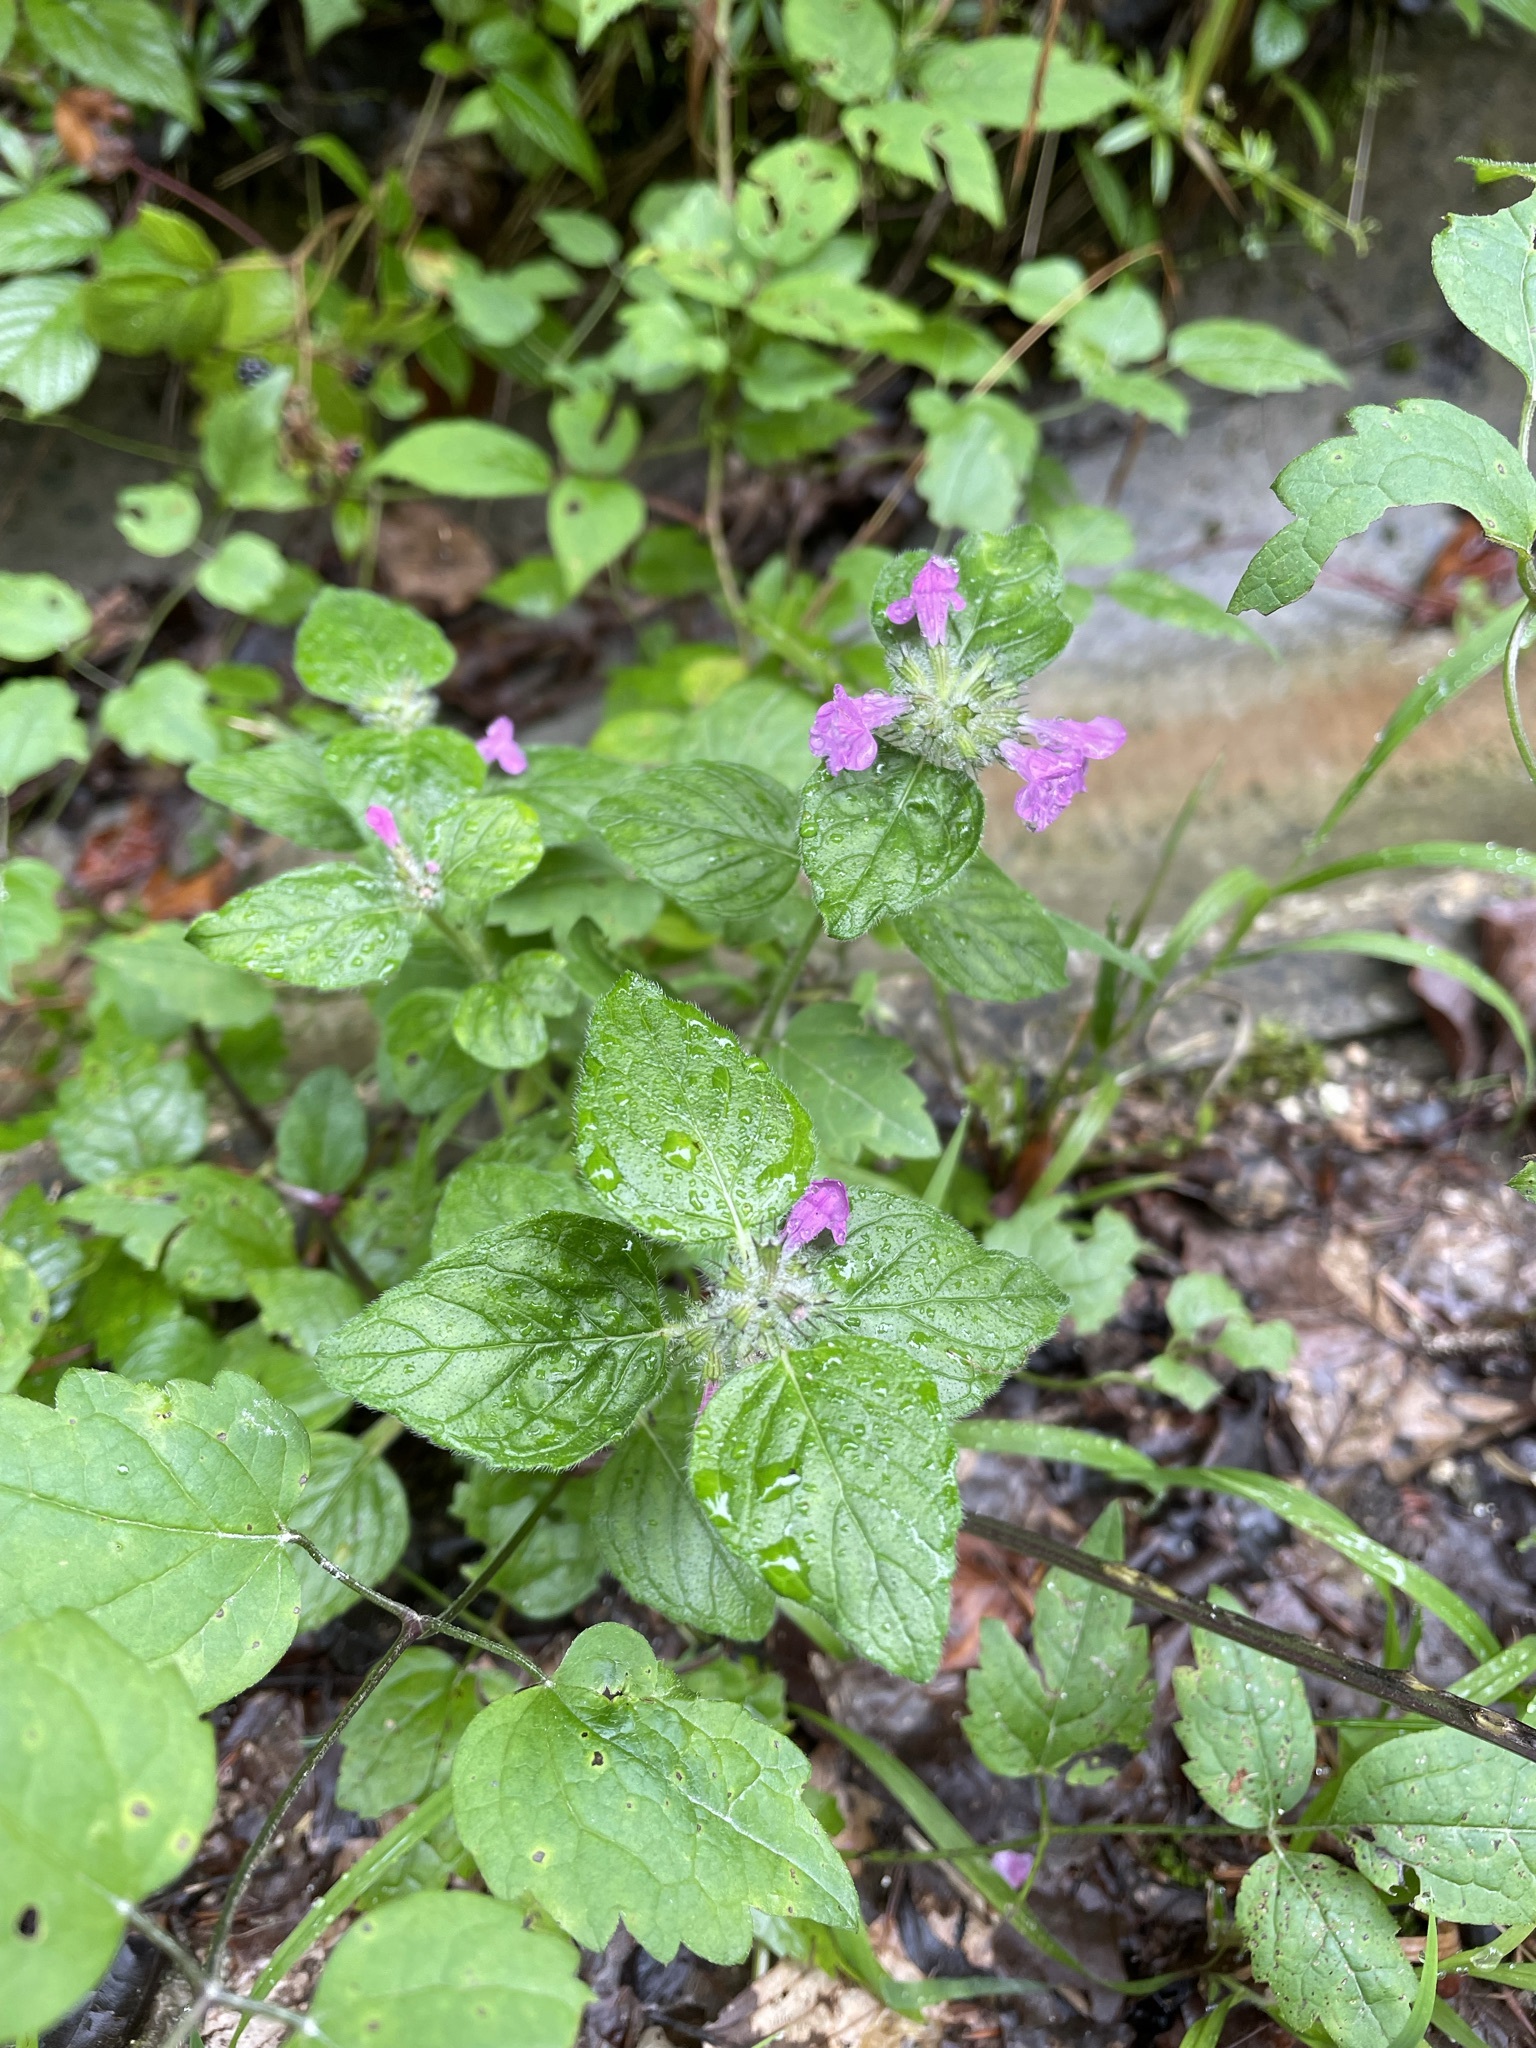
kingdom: Plantae
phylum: Tracheophyta
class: Magnoliopsida
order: Lamiales
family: Lamiaceae
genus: Clinopodium
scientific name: Clinopodium vulgare
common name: Wild basil
